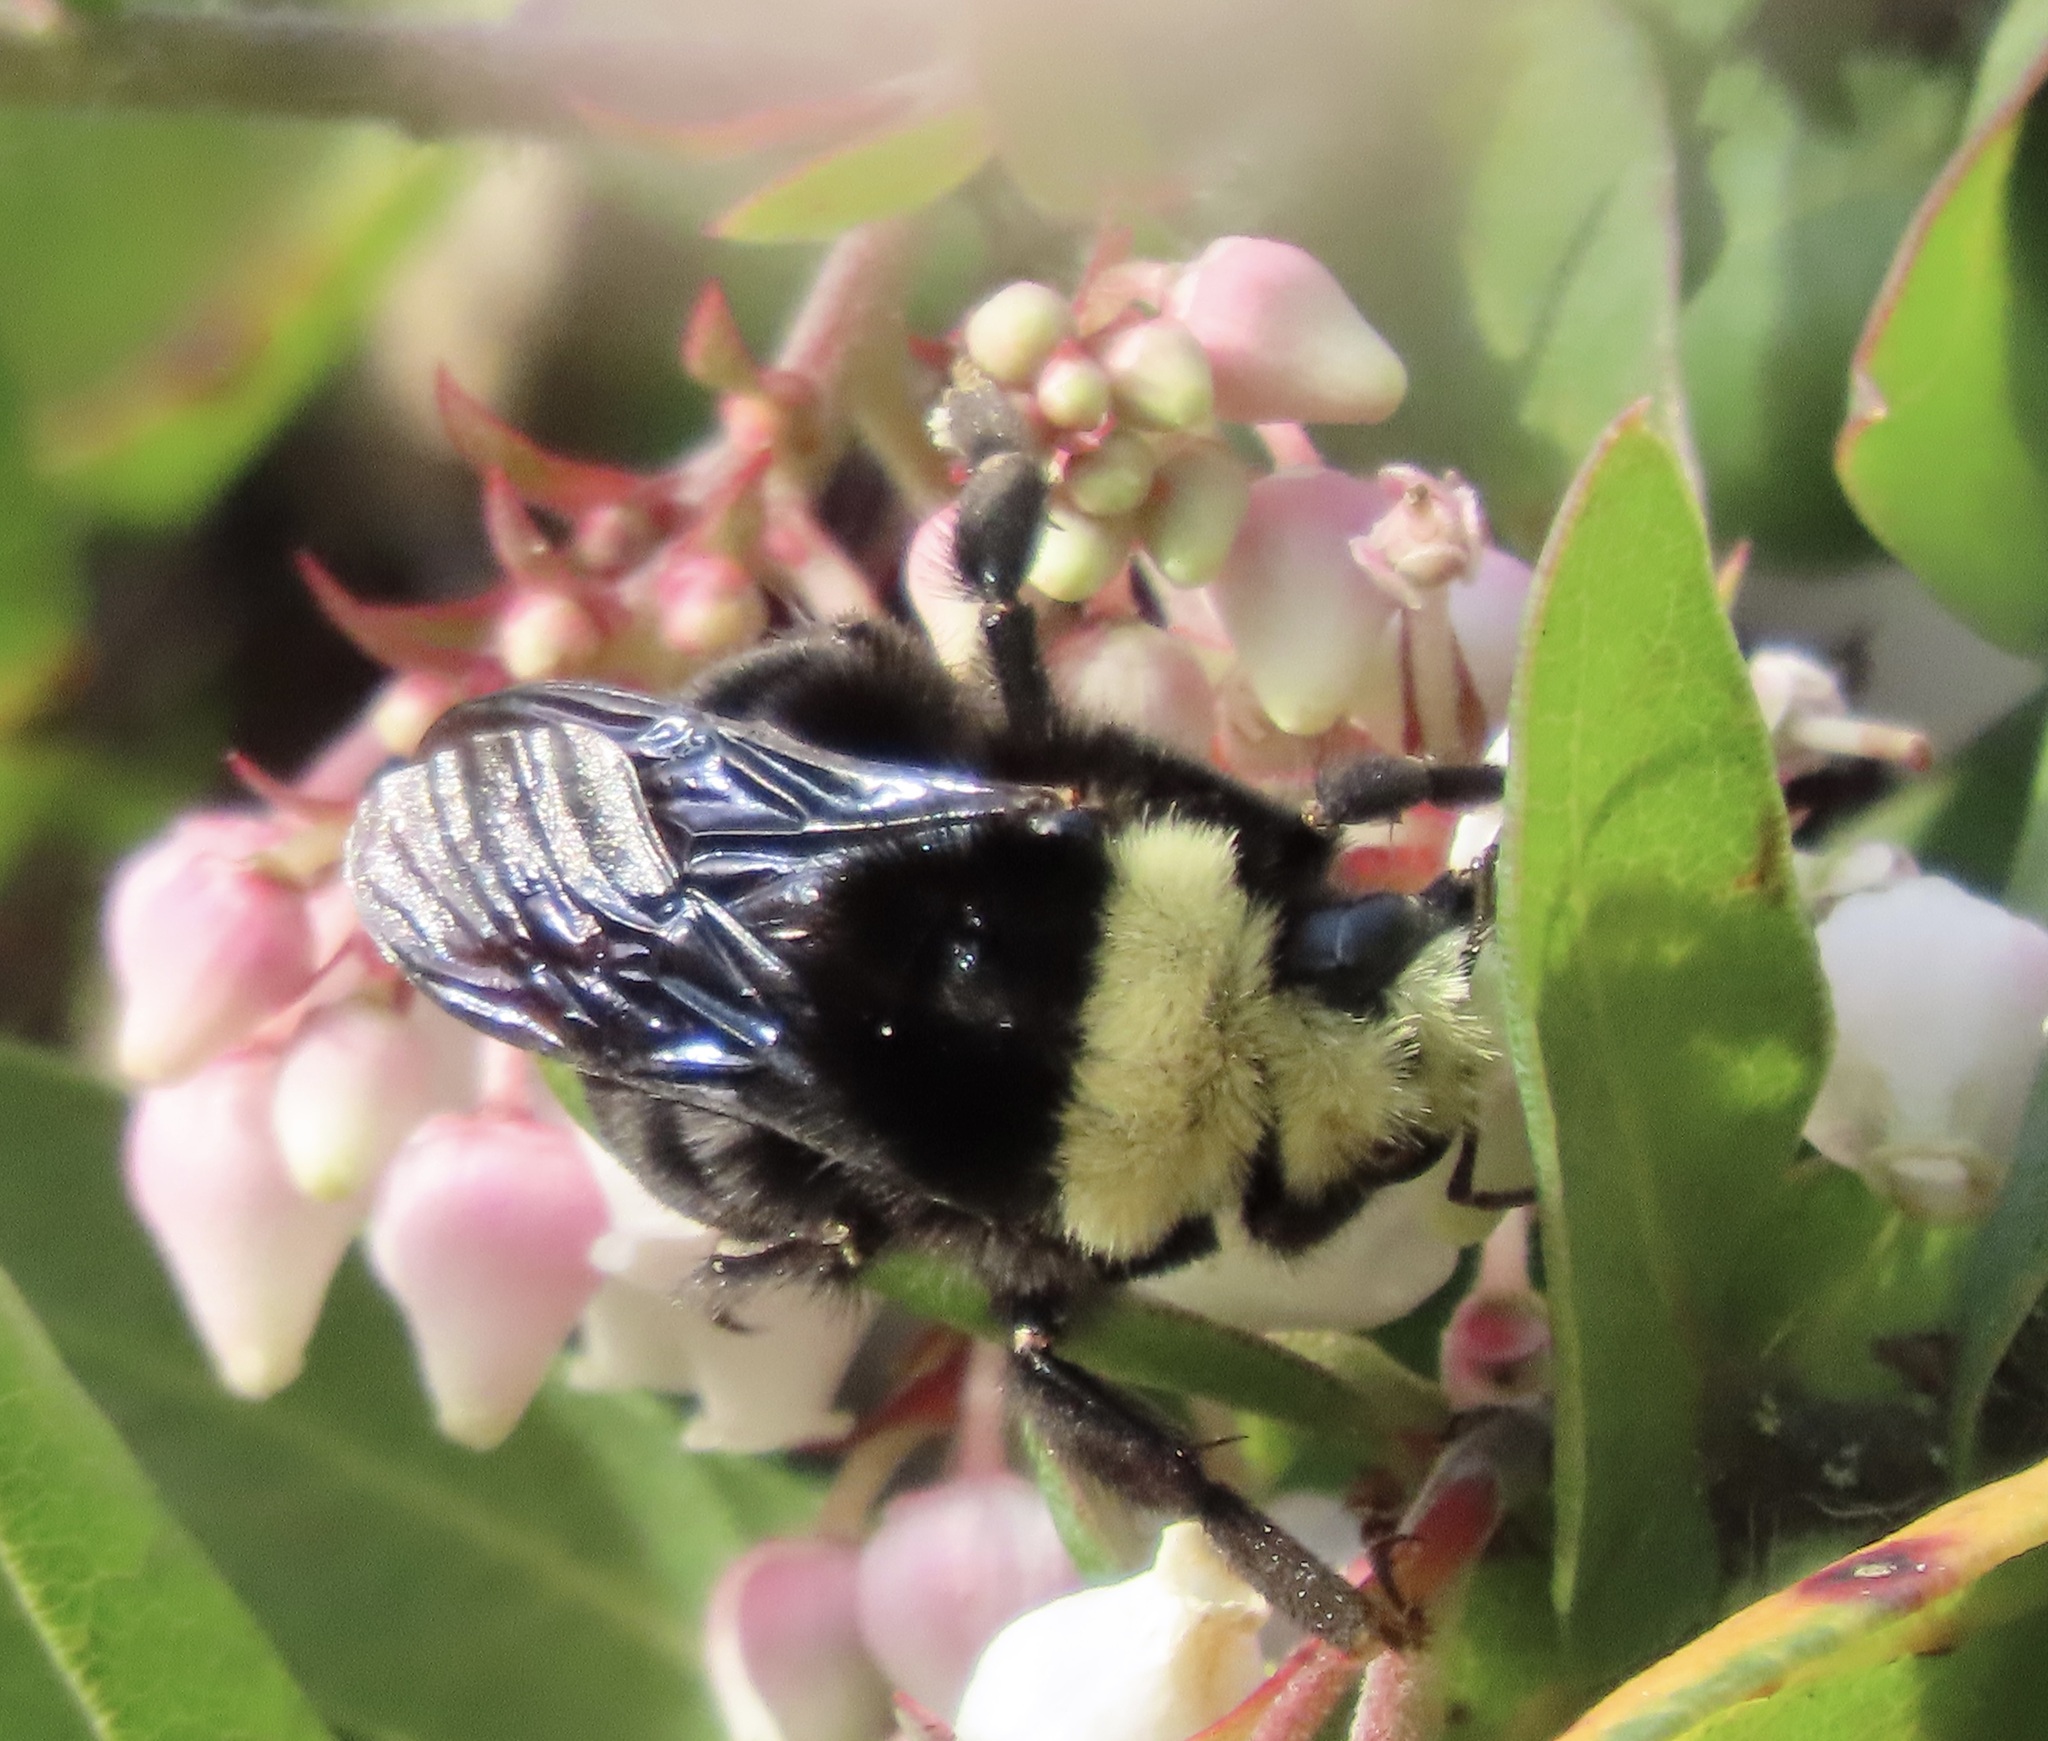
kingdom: Animalia
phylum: Arthropoda
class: Insecta
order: Hymenoptera
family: Apidae
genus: Bombus
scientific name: Bombus vosnesenskii
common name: Vosnesensky bumble bee
